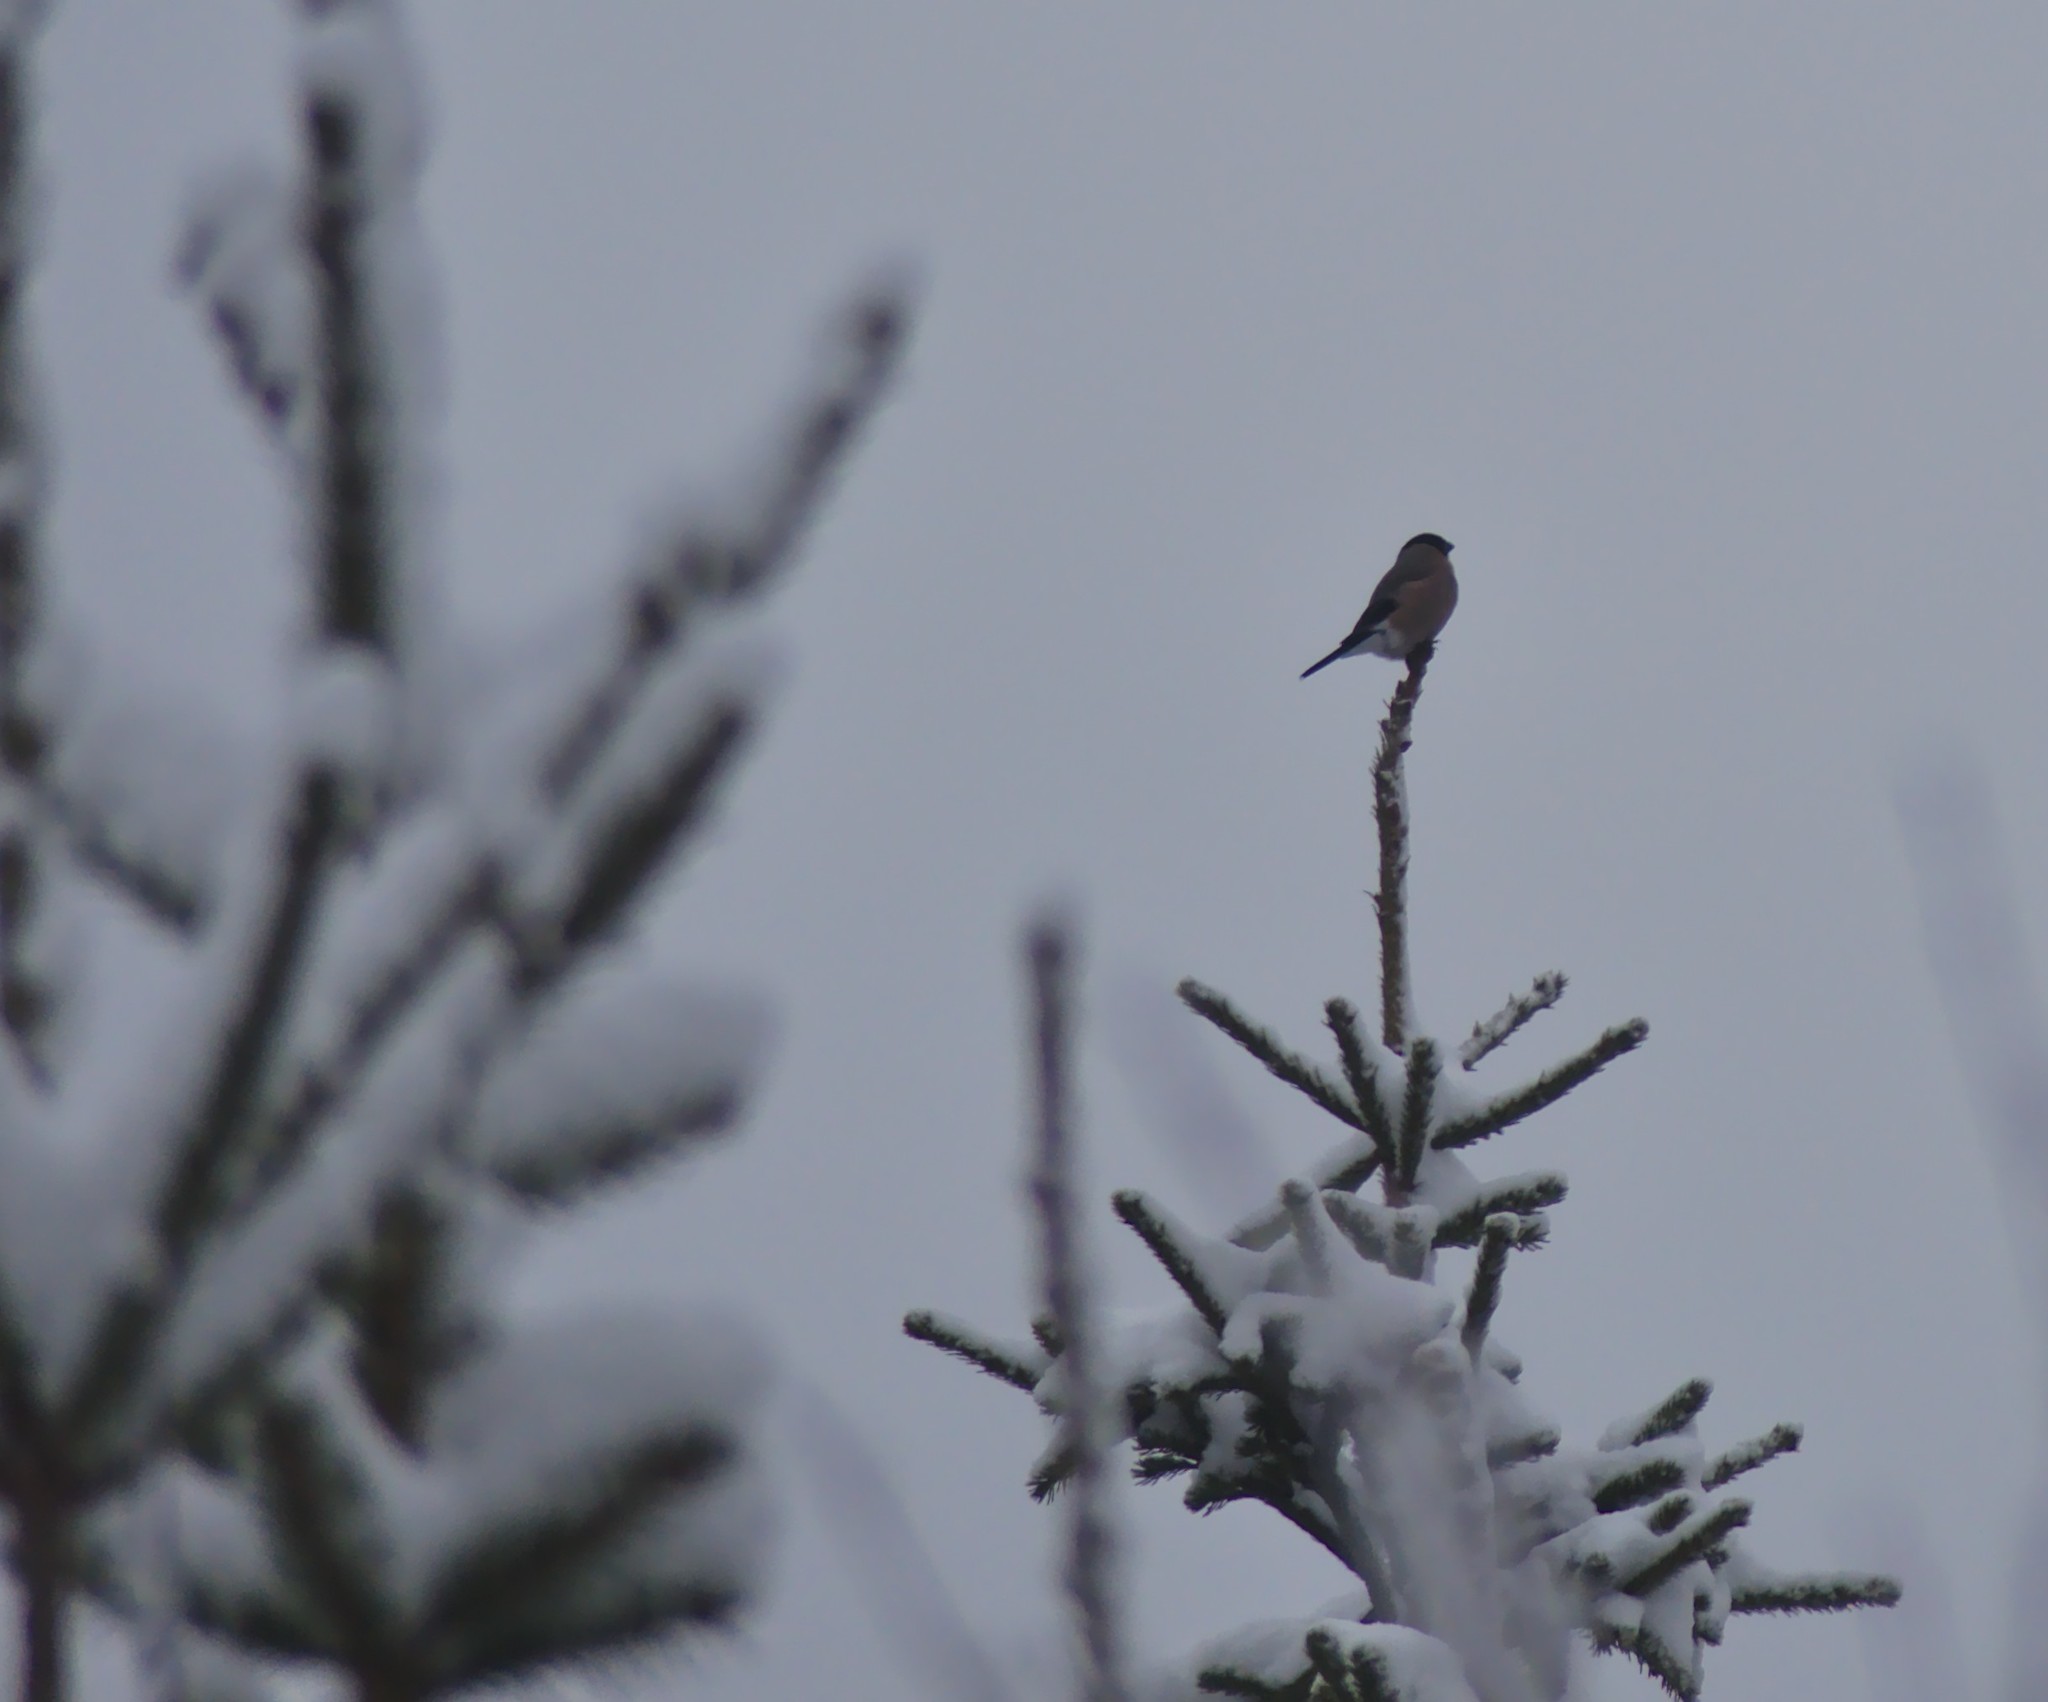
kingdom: Animalia
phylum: Chordata
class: Aves
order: Passeriformes
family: Fringillidae
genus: Pyrrhula
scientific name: Pyrrhula pyrrhula
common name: Eurasian bullfinch
